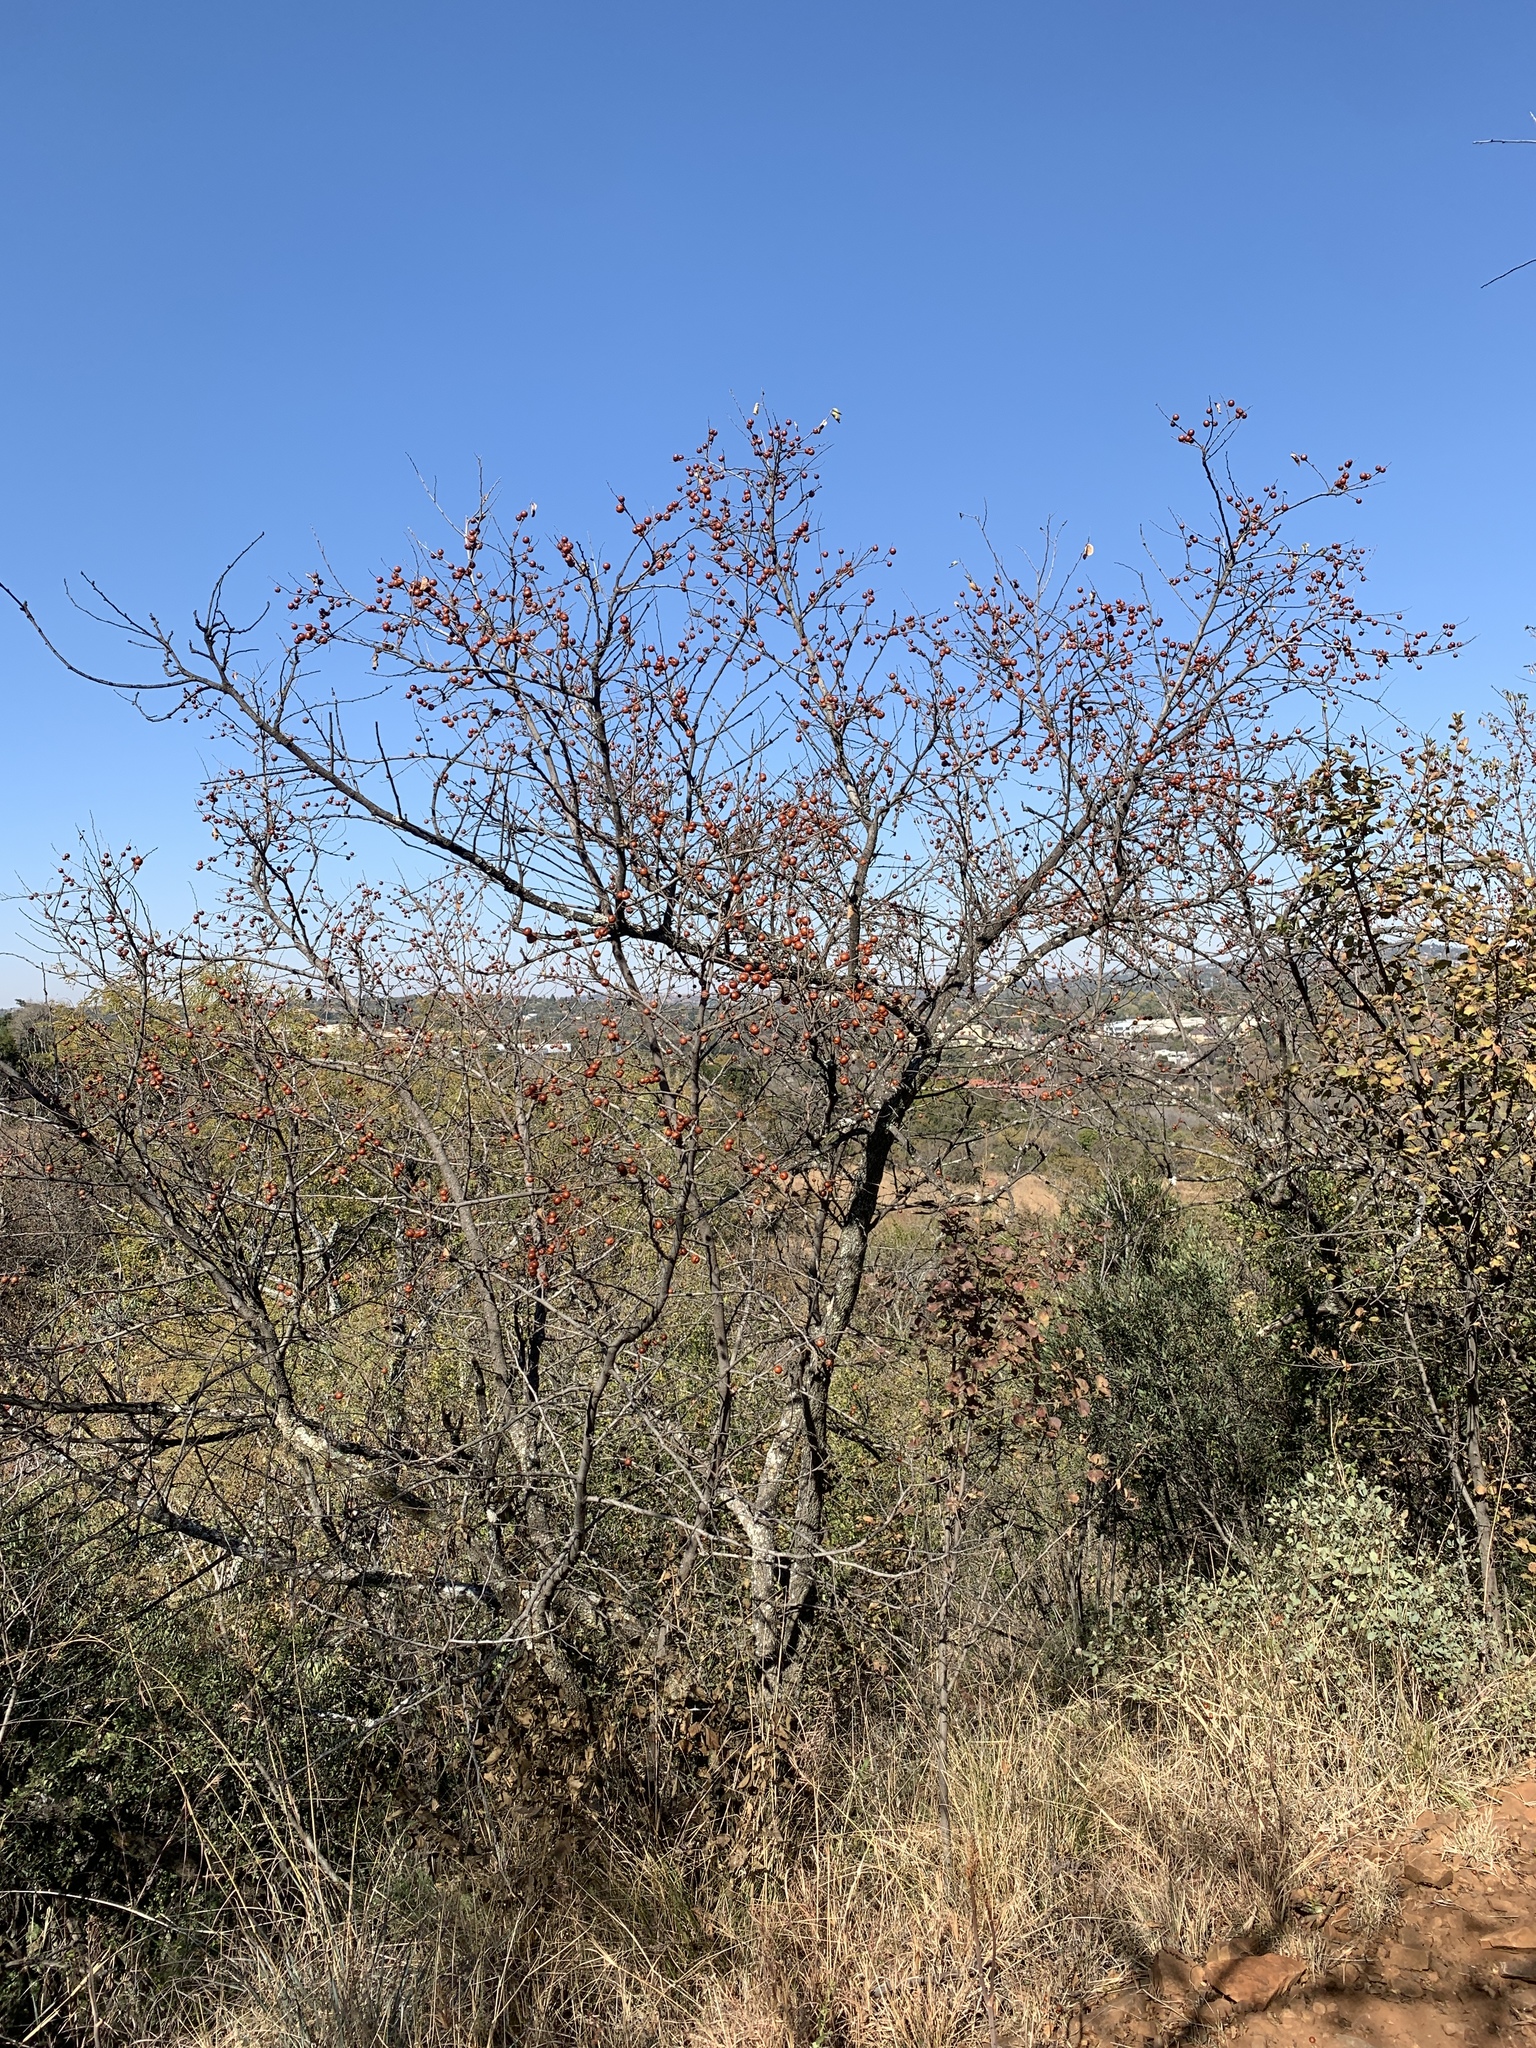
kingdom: Plantae
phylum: Tracheophyta
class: Magnoliopsida
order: Rosales
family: Rhamnaceae
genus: Ziziphus
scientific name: Ziziphus mucronata
